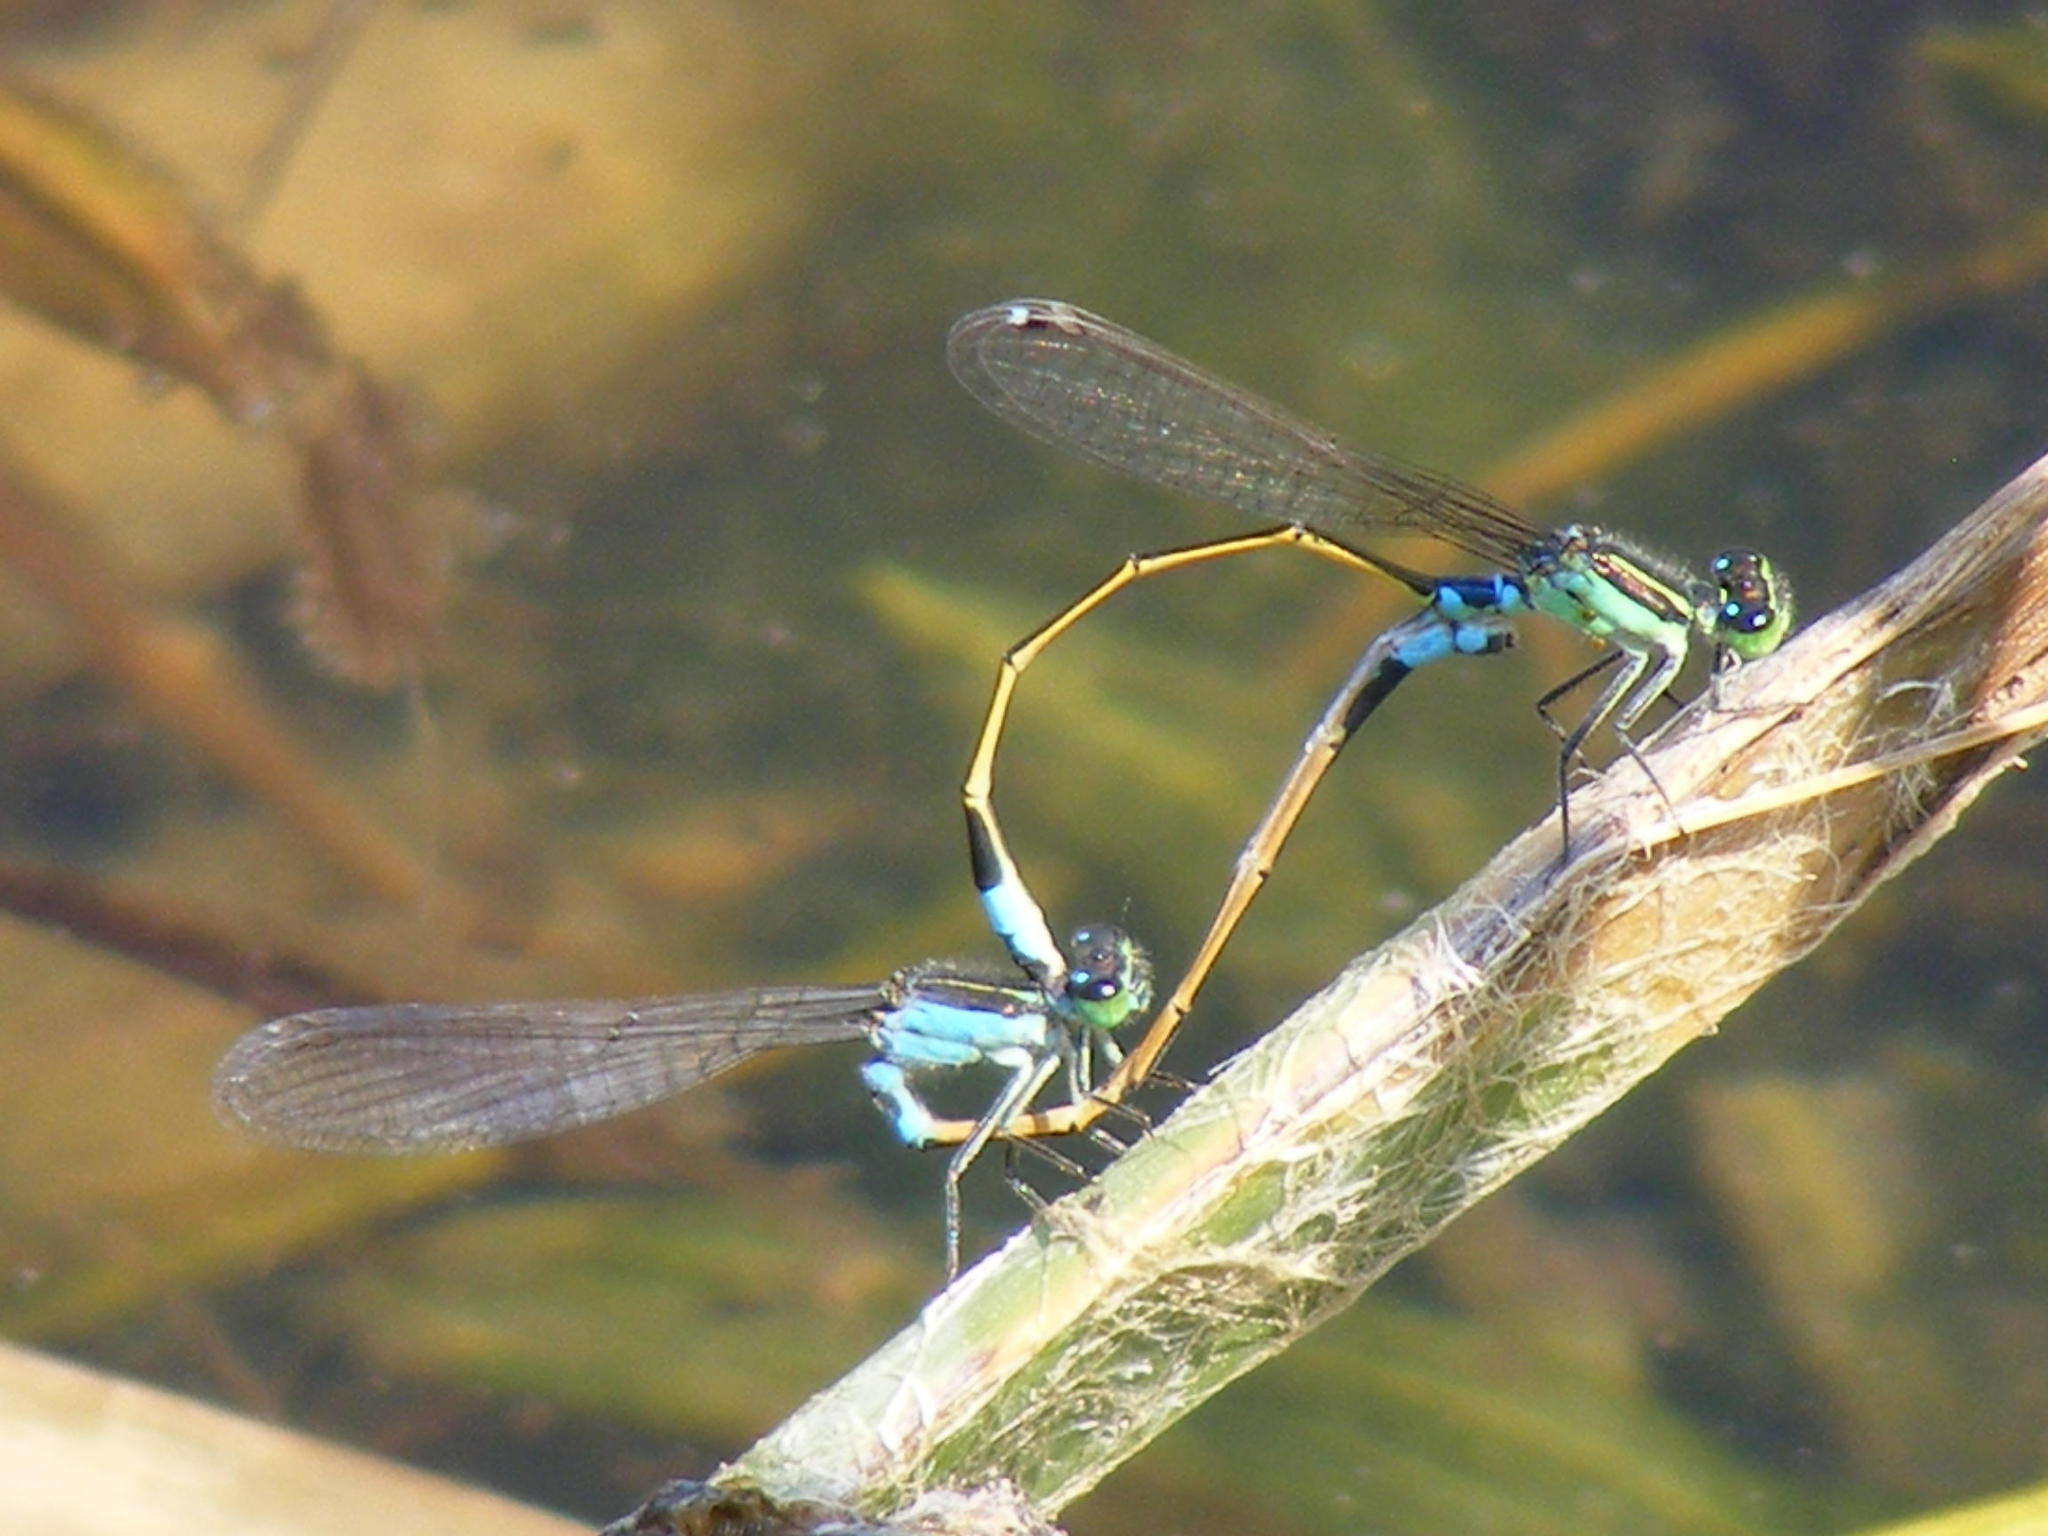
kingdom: Animalia
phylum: Arthropoda
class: Insecta
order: Odonata
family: Coenagrionidae
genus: Ischnura
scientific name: Ischnura senegalensis
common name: Tropical bluetail
